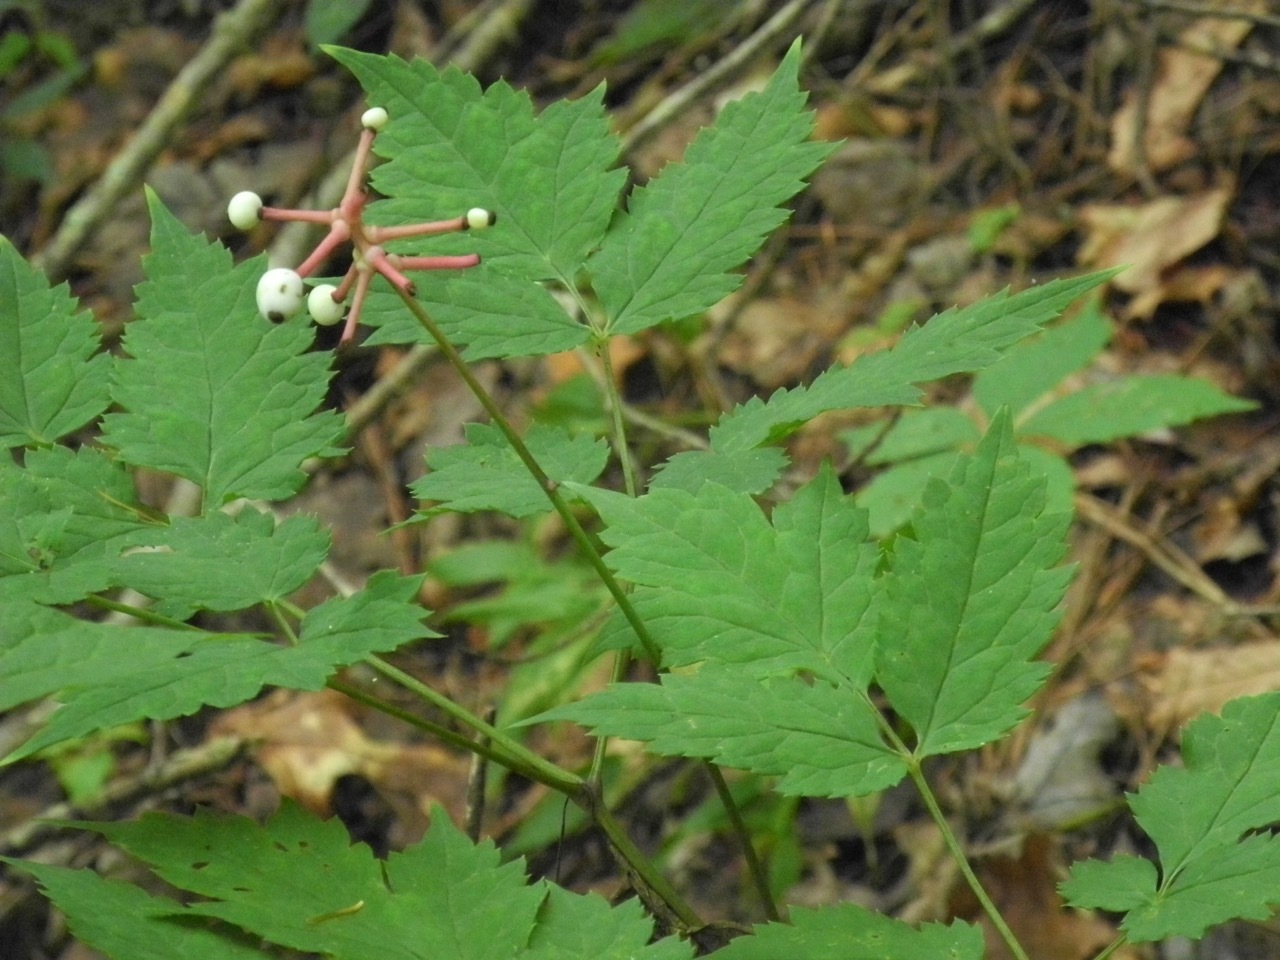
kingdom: Plantae
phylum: Tracheophyta
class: Magnoliopsida
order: Ranunculales
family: Ranunculaceae
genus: Actaea
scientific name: Actaea pachypoda
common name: Doll's-eyes
